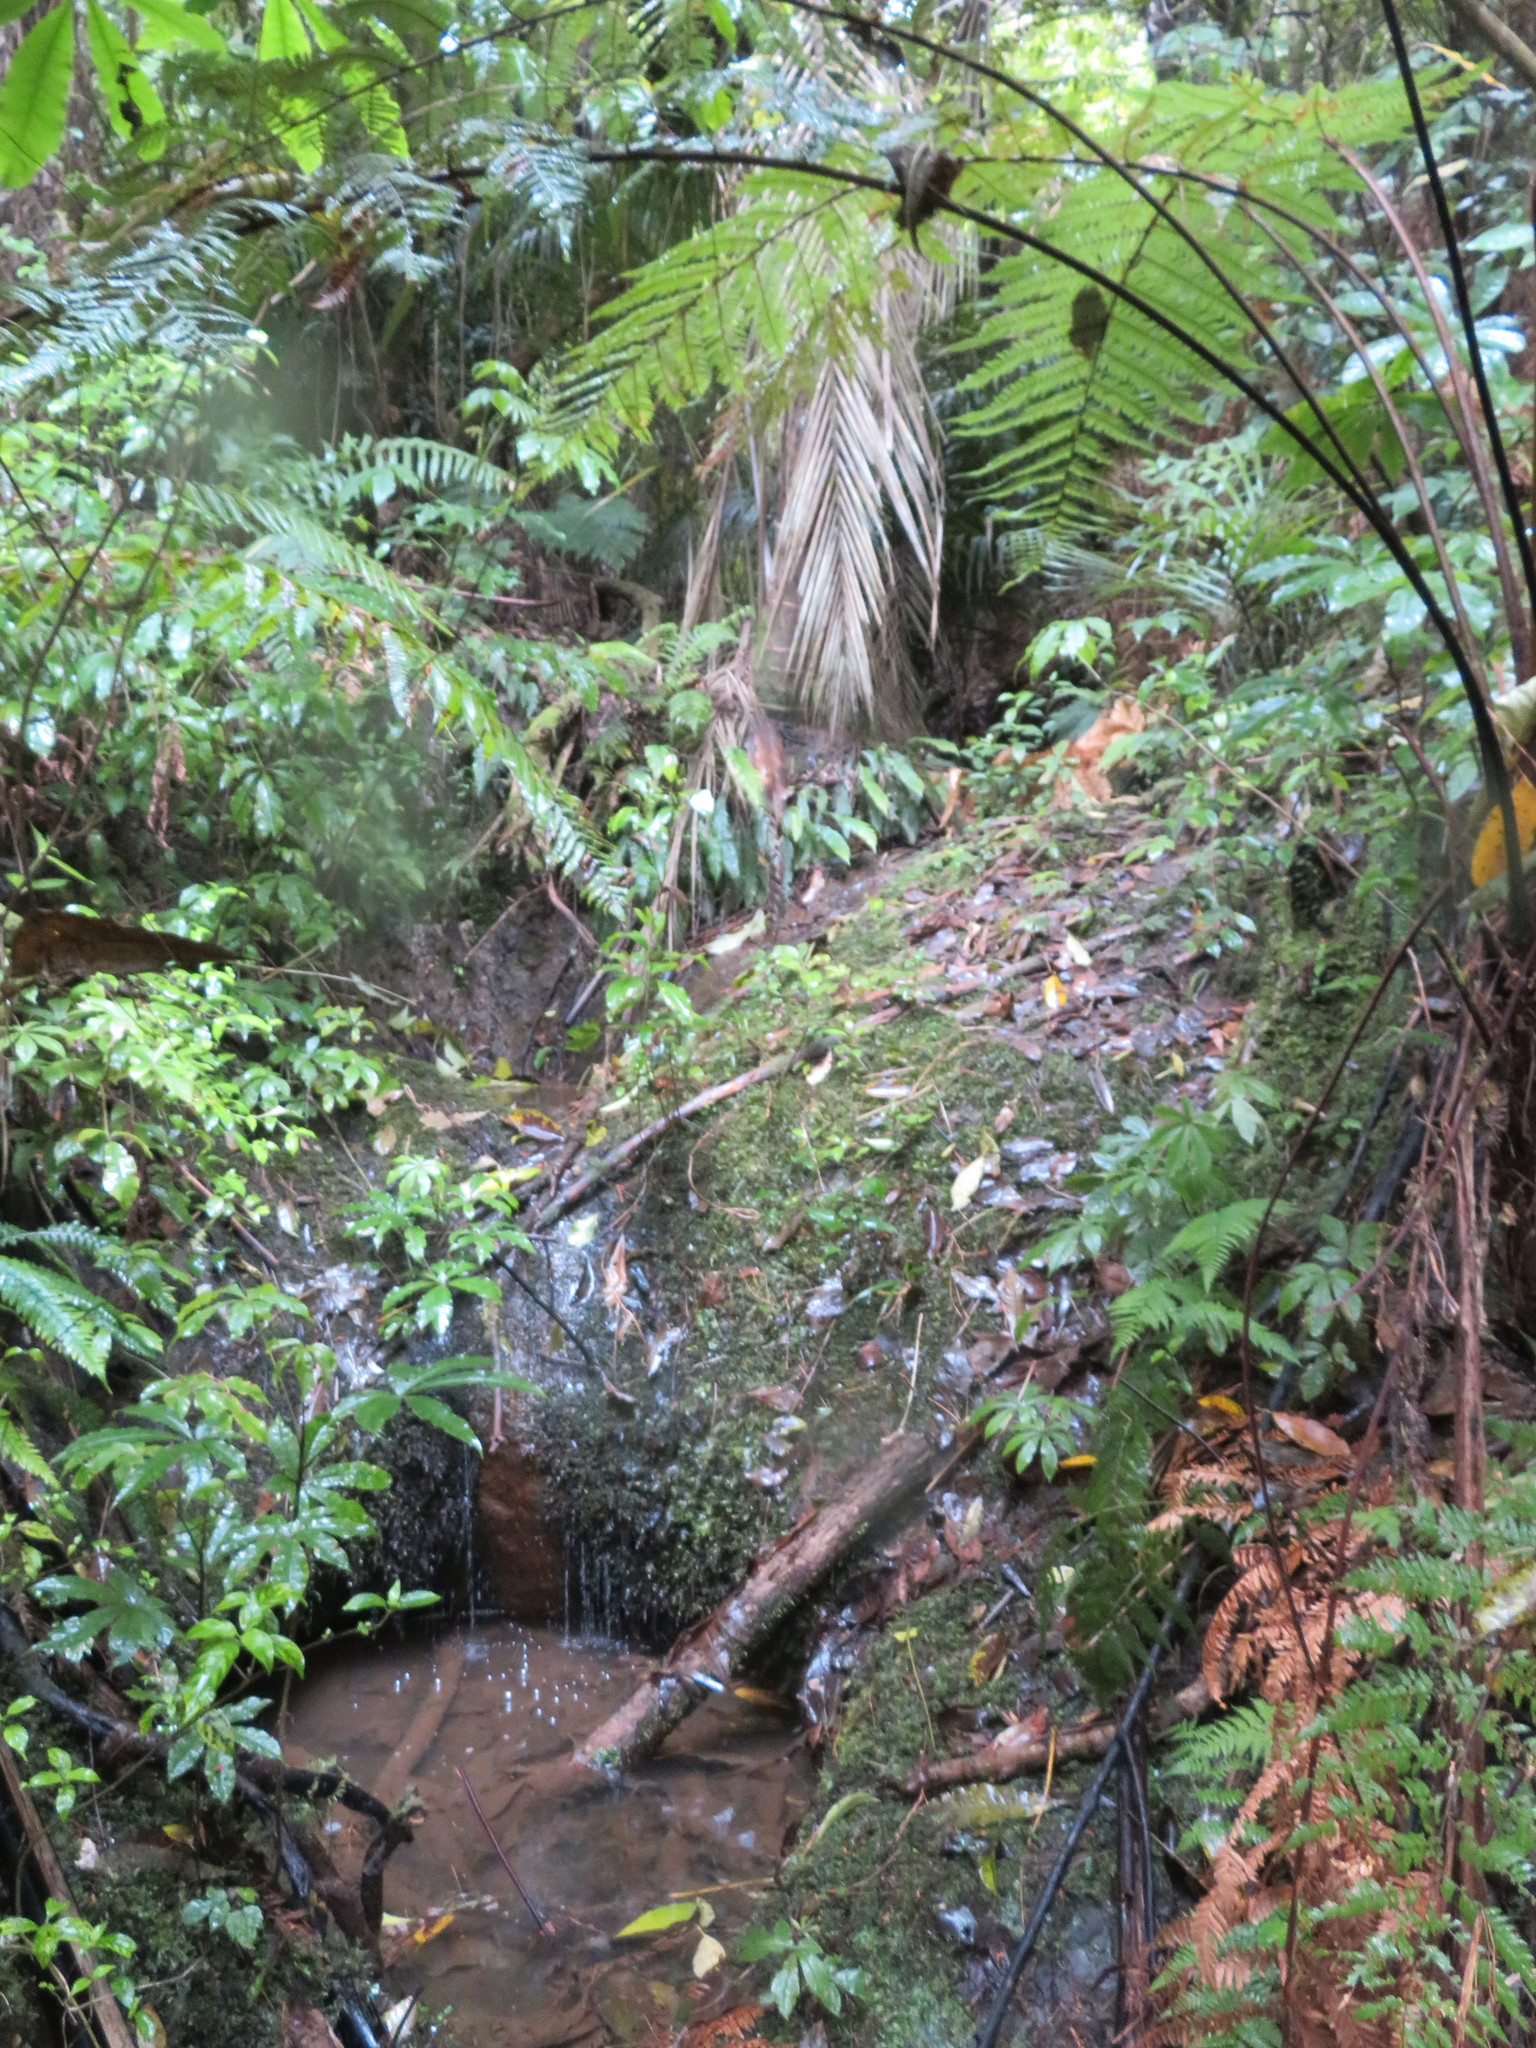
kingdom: Plantae
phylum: Tracheophyta
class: Magnoliopsida
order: Apiales
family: Araliaceae
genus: Schefflera
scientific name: Schefflera digitata
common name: Pate
